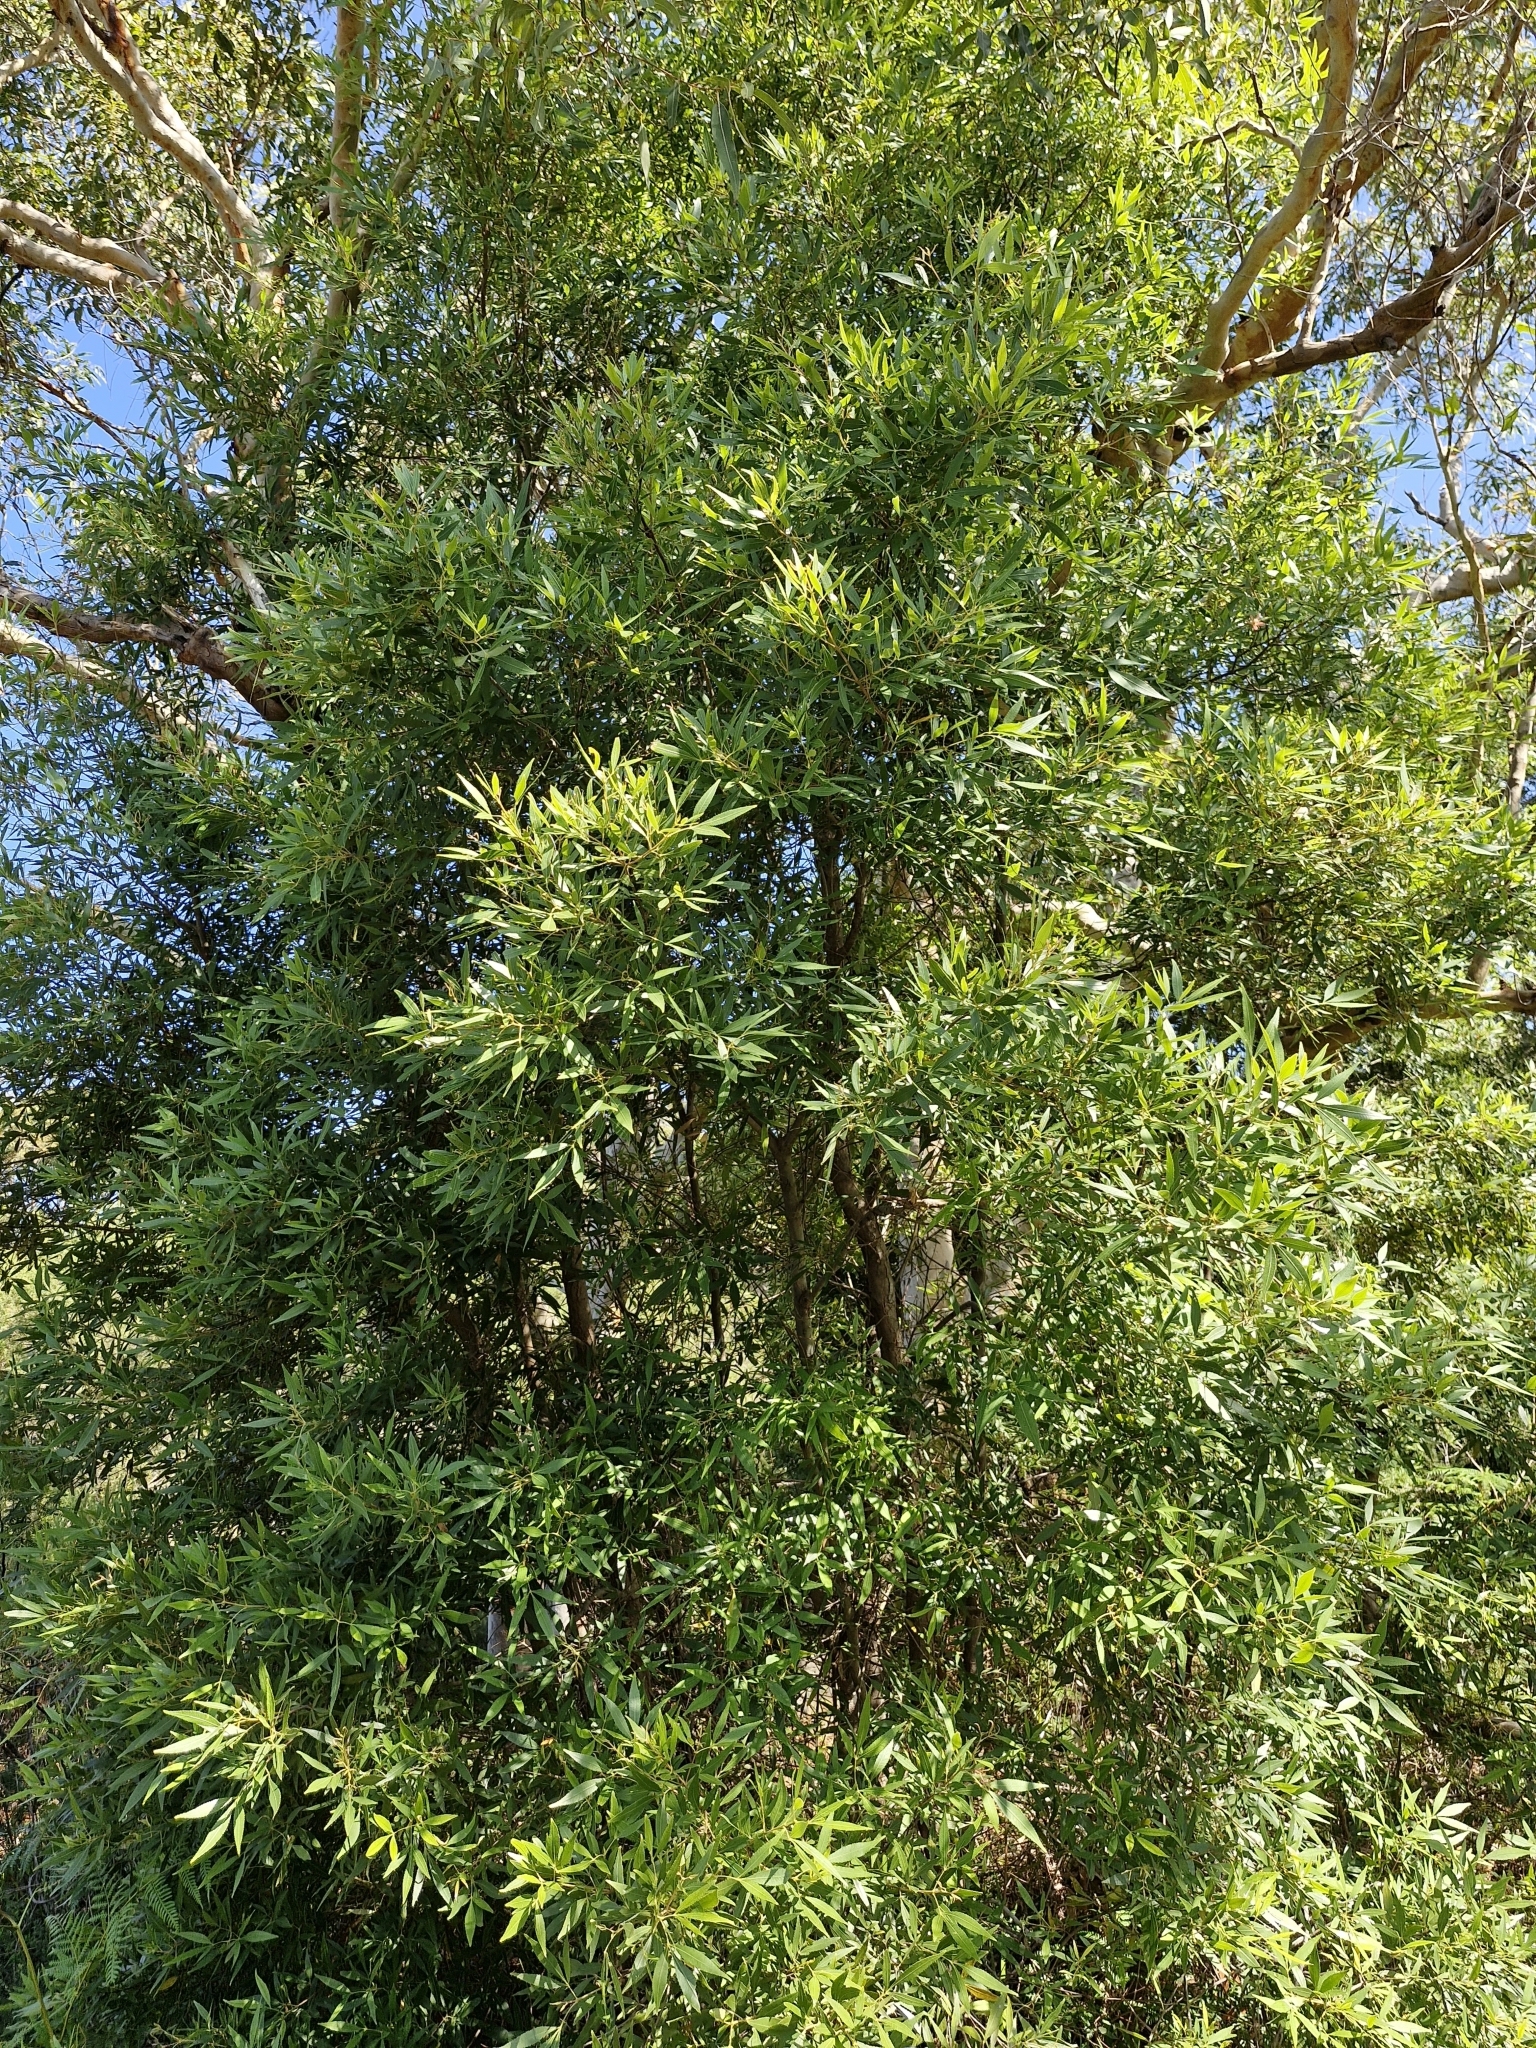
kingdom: Plantae
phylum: Tracheophyta
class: Magnoliopsida
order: Oxalidales
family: Cunoniaceae
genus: Ceratopetalum
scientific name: Ceratopetalum gummiferum
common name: Christmasbush
